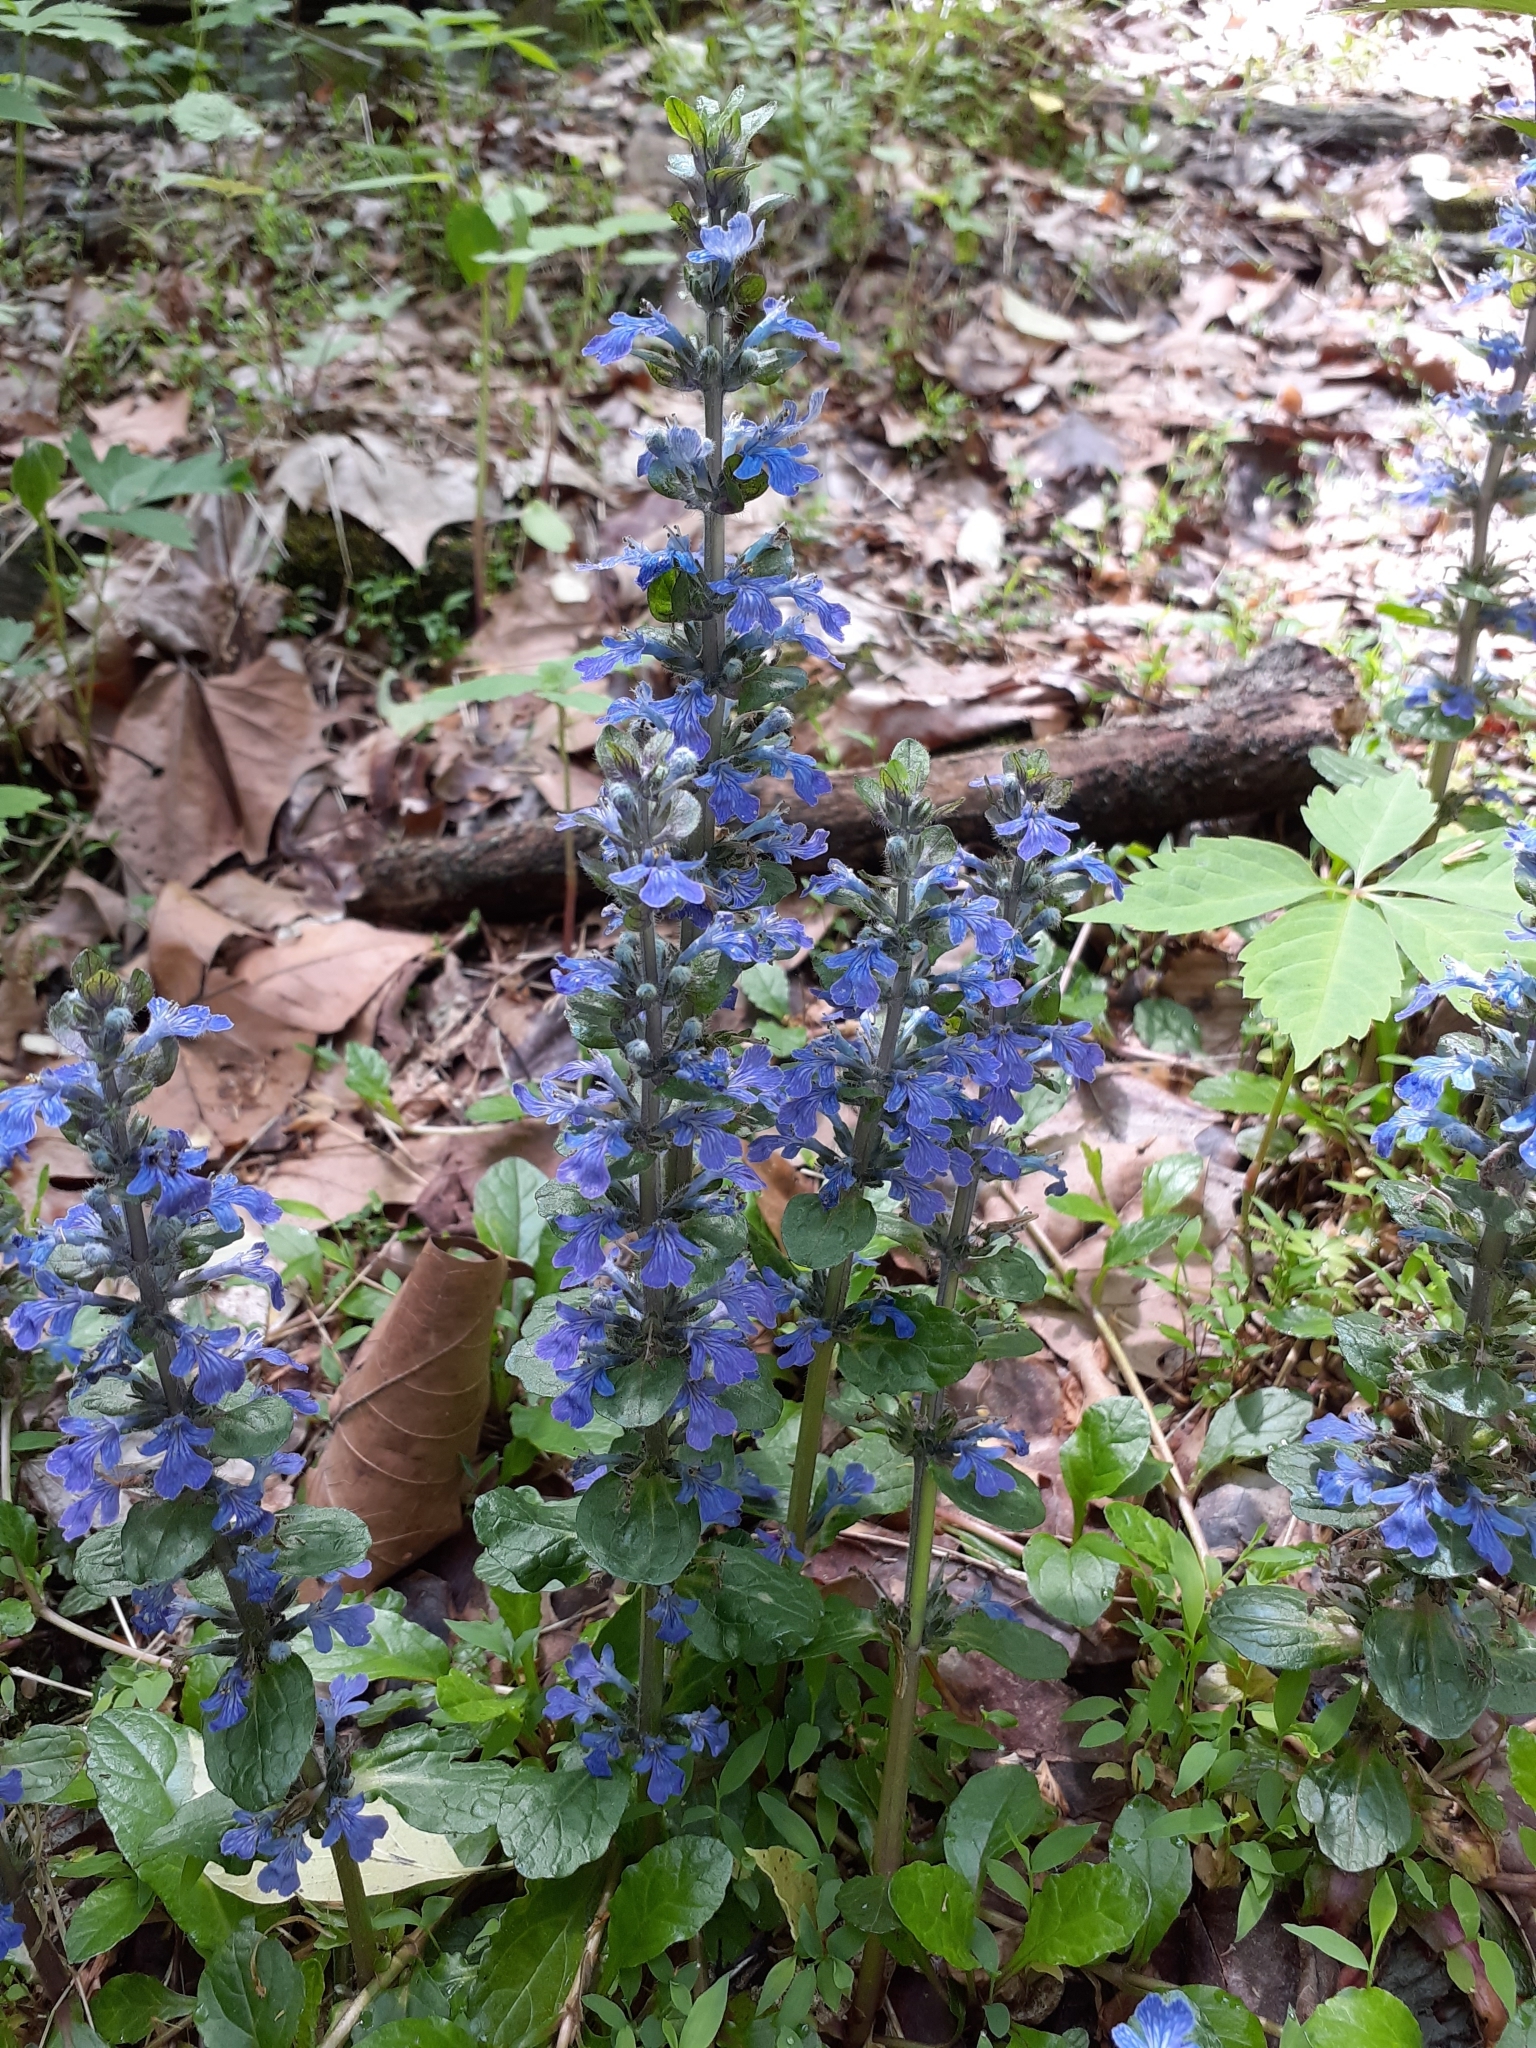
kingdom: Plantae
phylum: Tracheophyta
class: Magnoliopsida
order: Lamiales
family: Lamiaceae
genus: Ajuga
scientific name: Ajuga reptans
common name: Bugle
